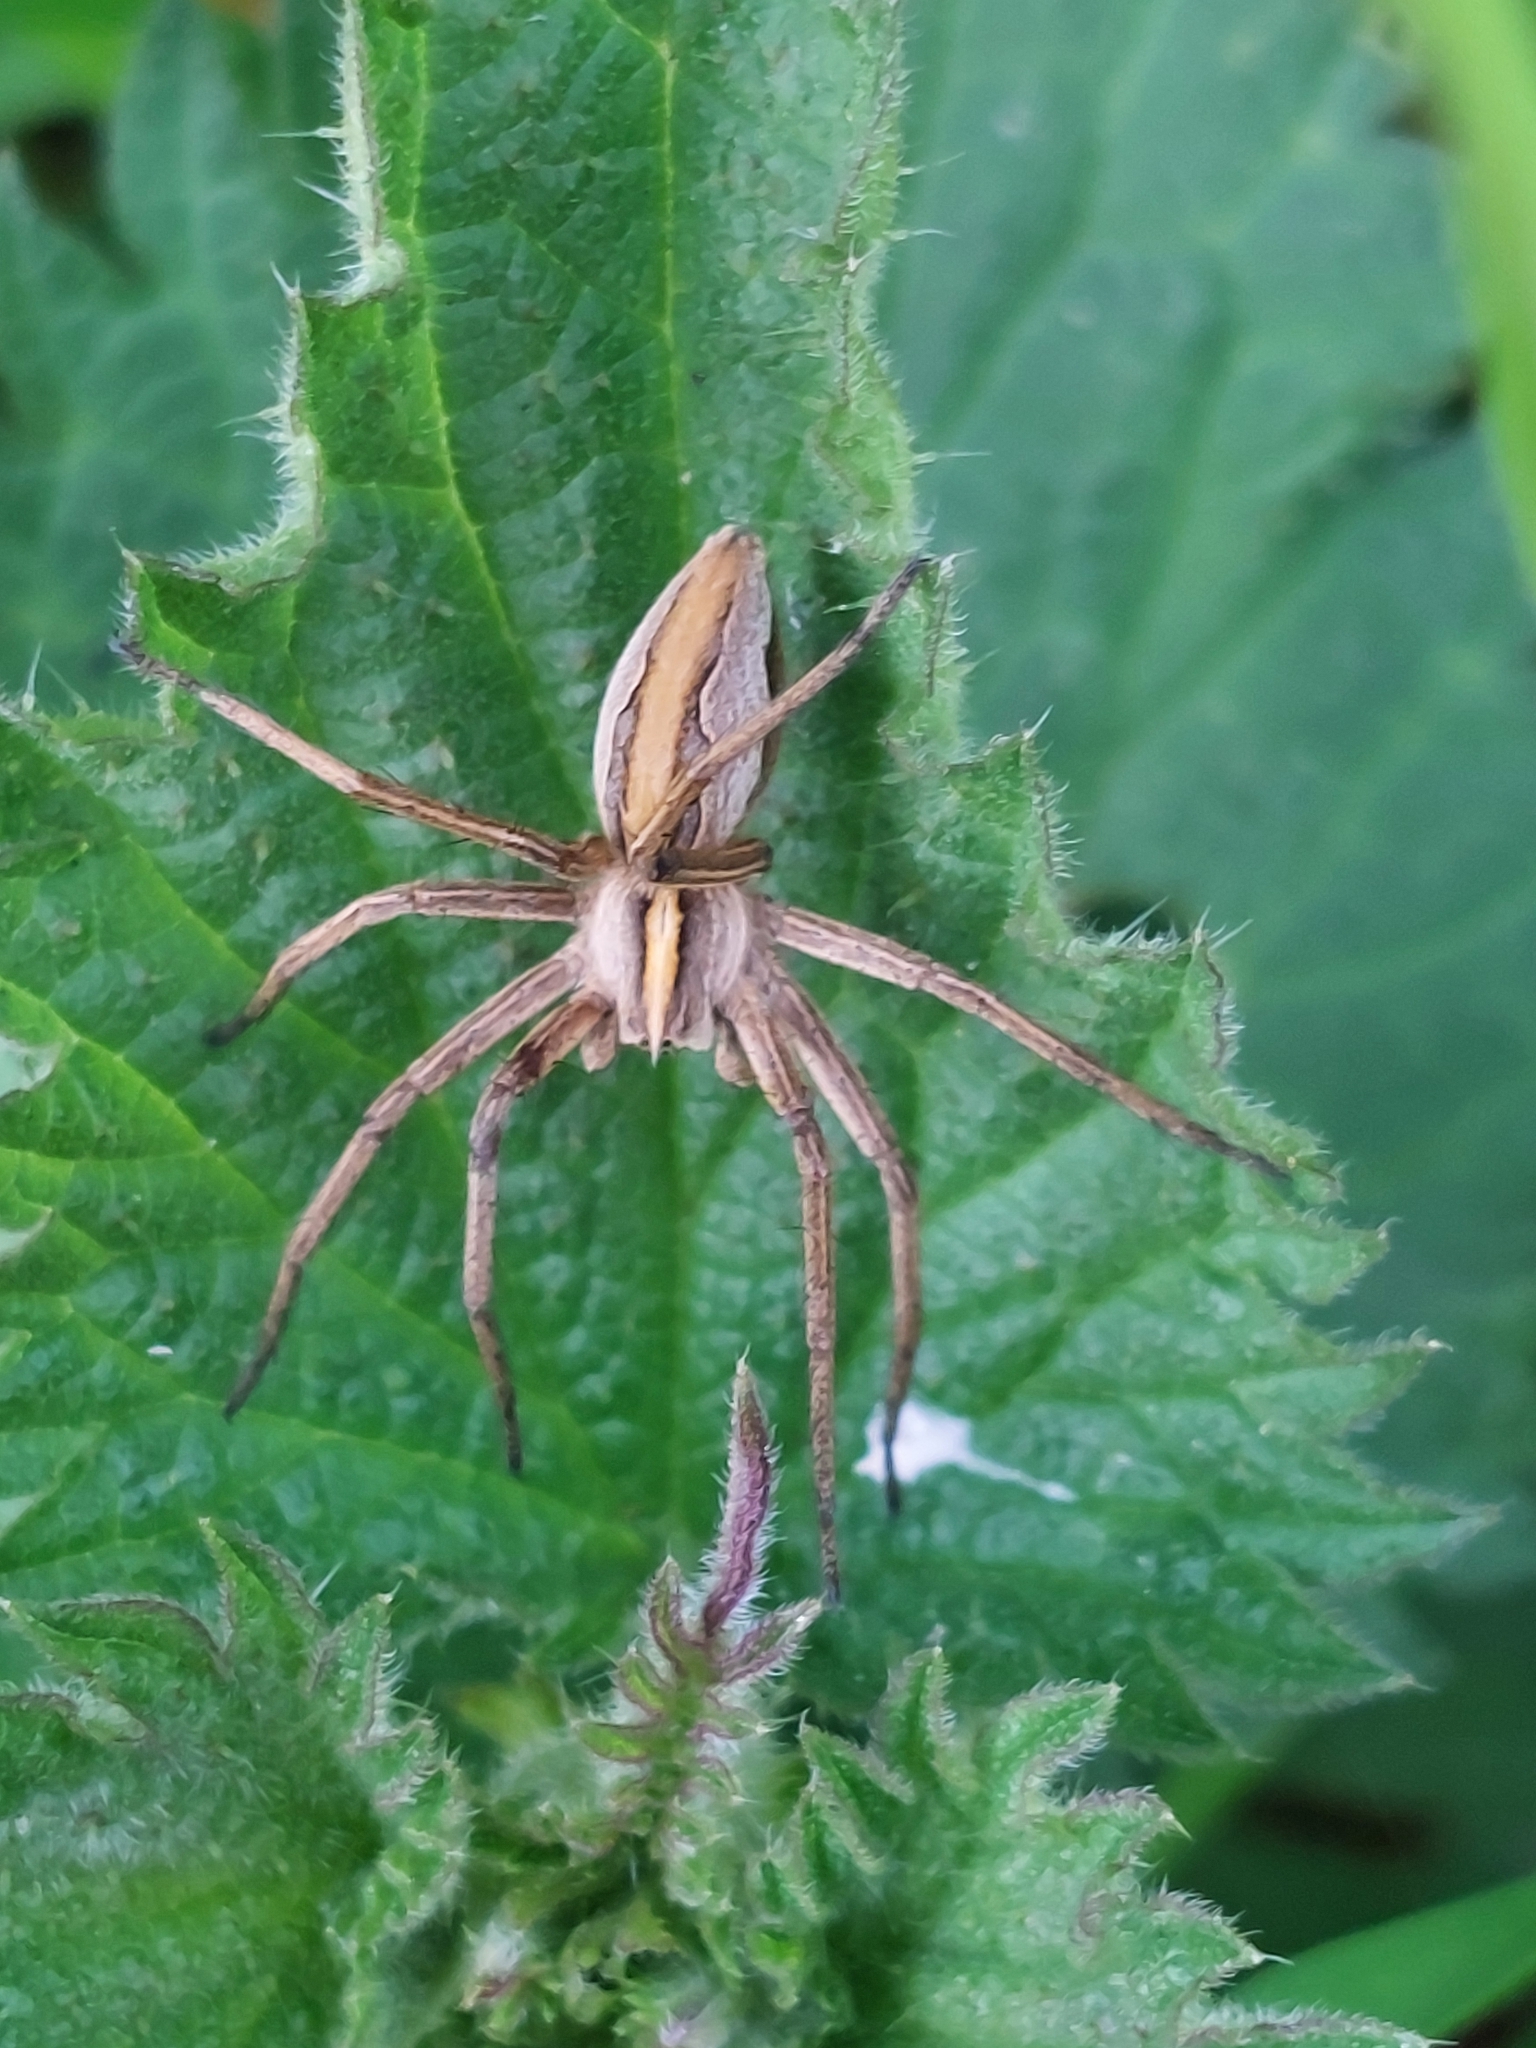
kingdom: Animalia
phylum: Arthropoda
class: Arachnida
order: Araneae
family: Pisauridae
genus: Pisaura
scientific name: Pisaura mirabilis
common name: Tent spider
